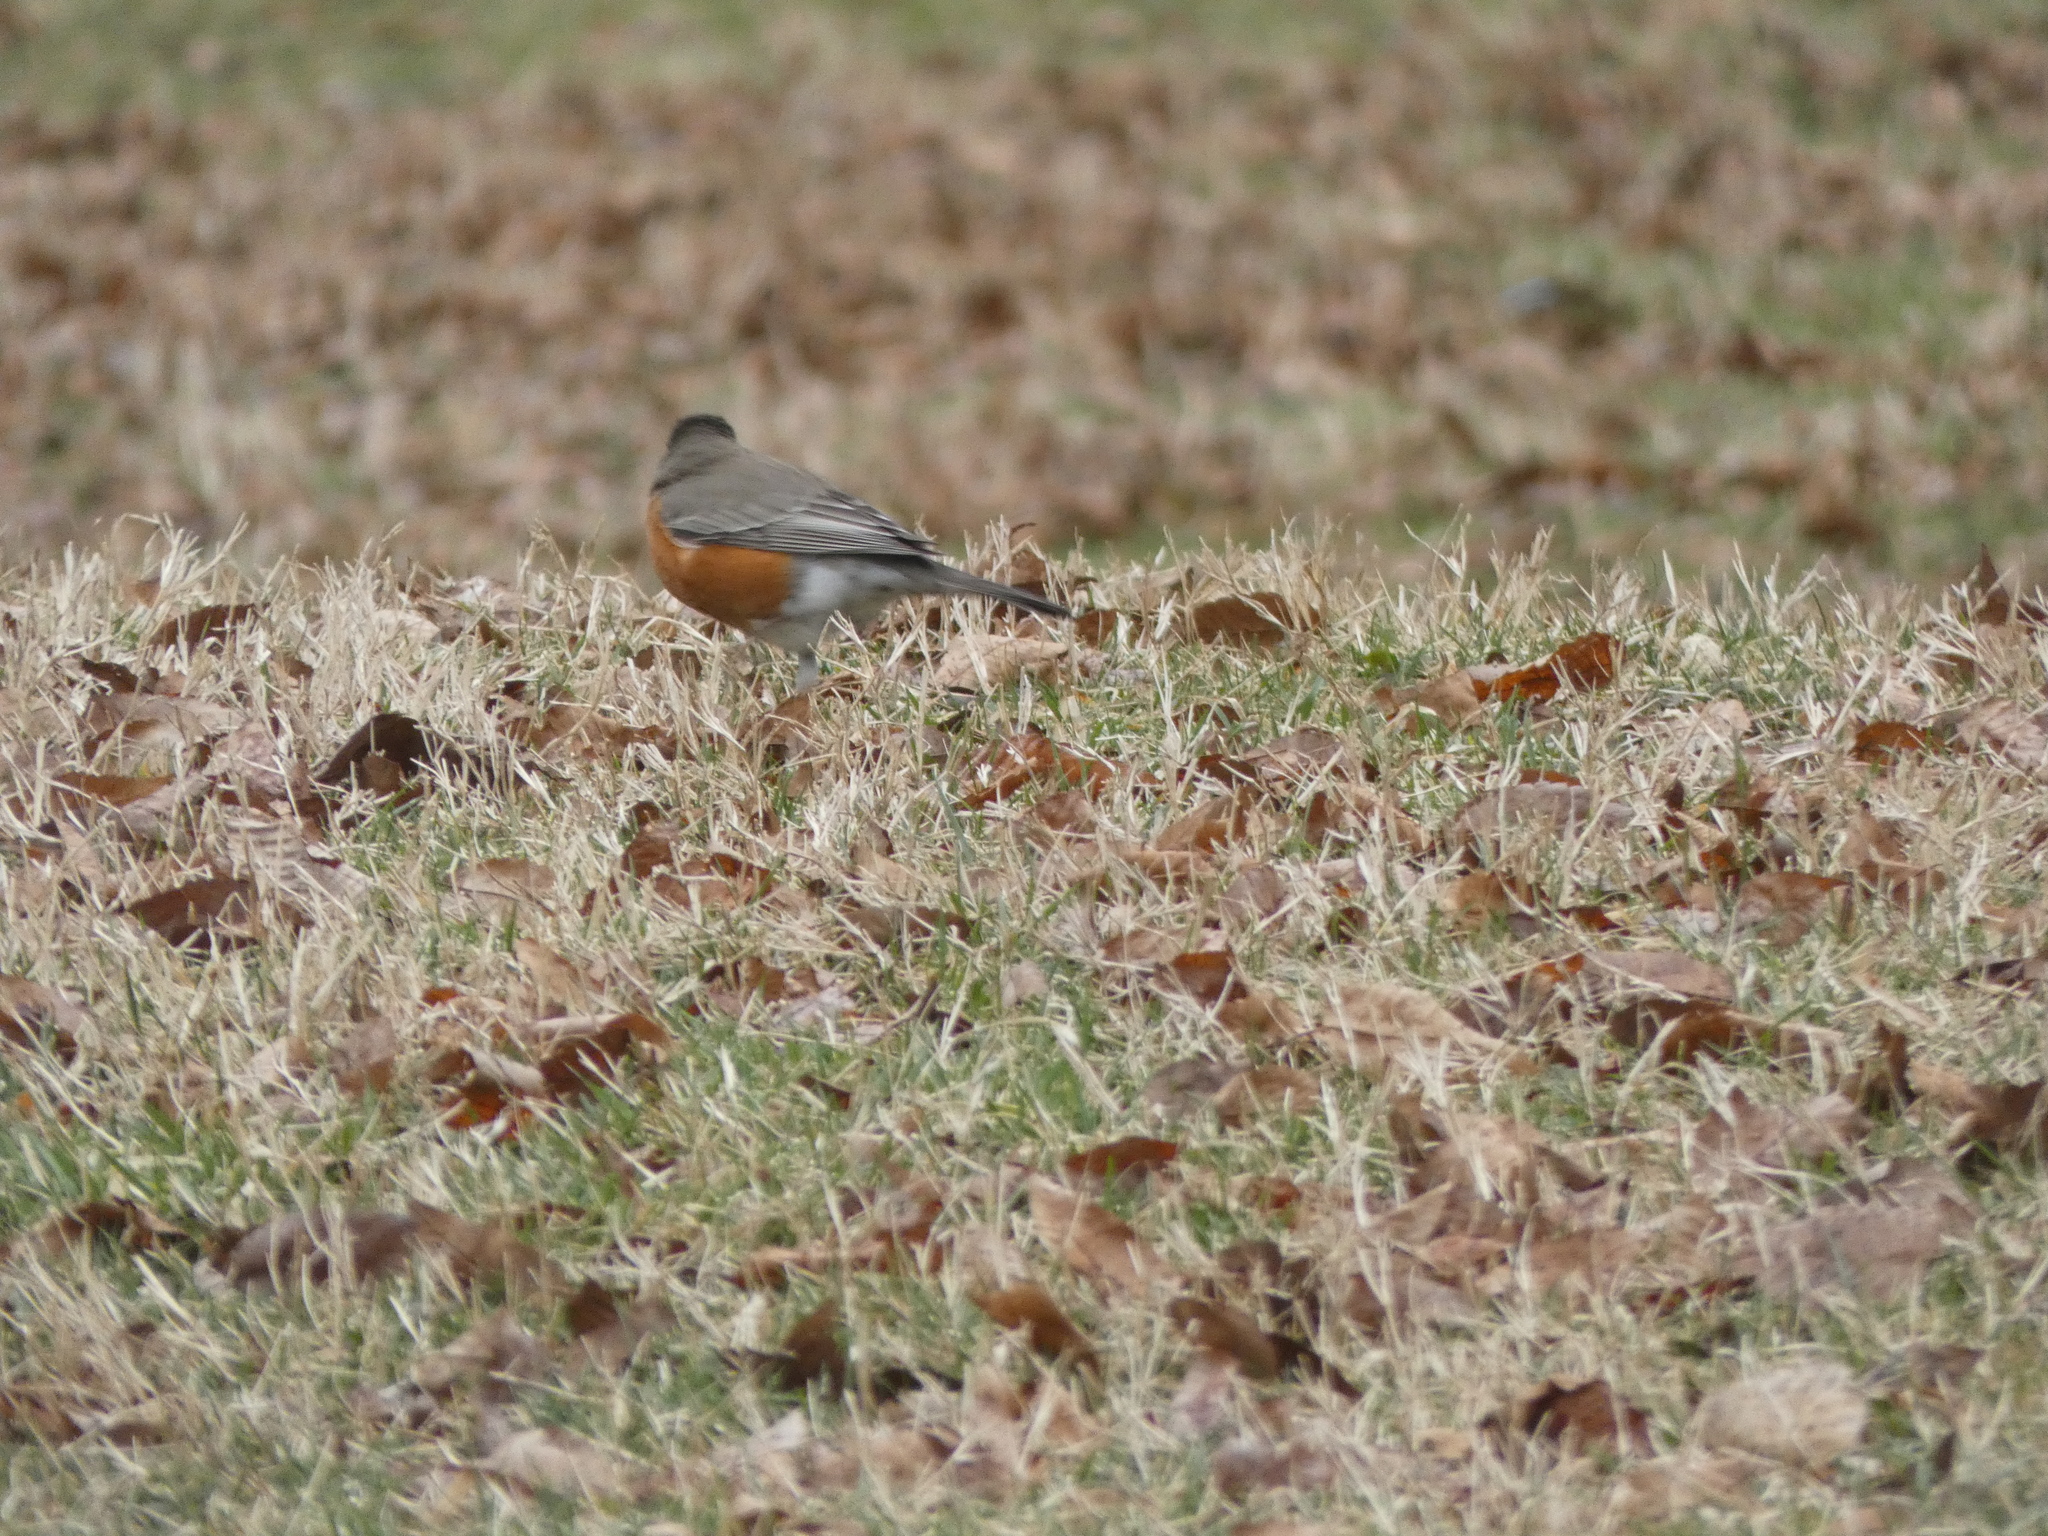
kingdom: Animalia
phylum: Chordata
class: Aves
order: Passeriformes
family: Turdidae
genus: Turdus
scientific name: Turdus migratorius
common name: American robin
